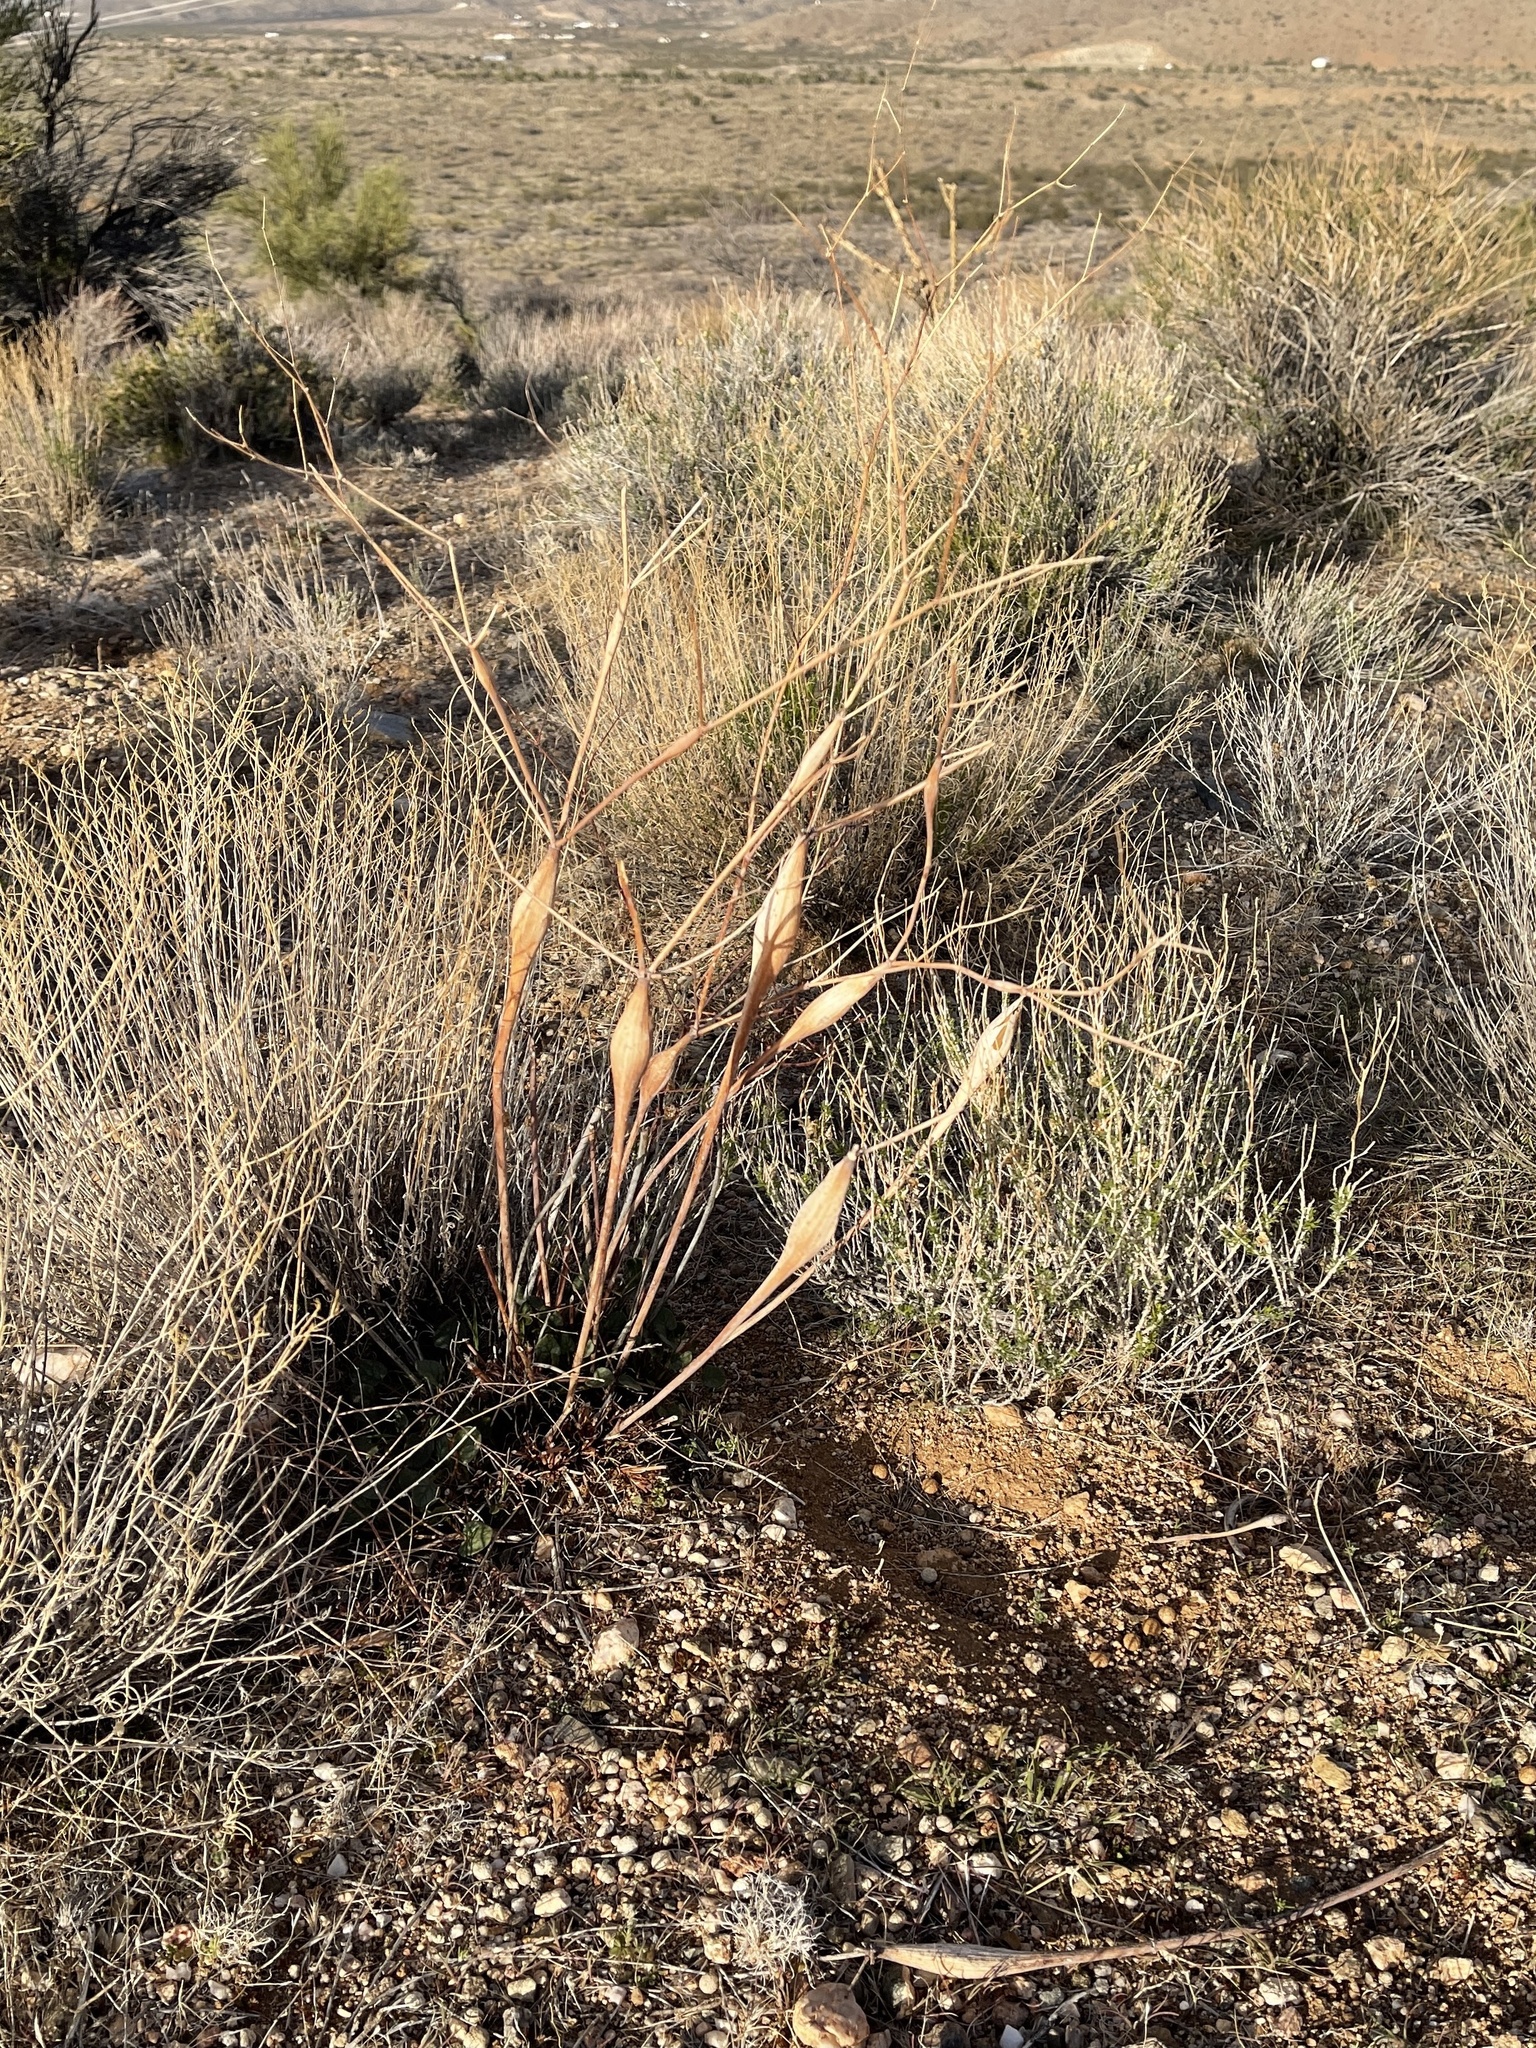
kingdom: Plantae
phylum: Tracheophyta
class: Magnoliopsida
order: Caryophyllales
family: Polygonaceae
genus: Eriogonum
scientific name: Eriogonum inflatum
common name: Desert trumpet
